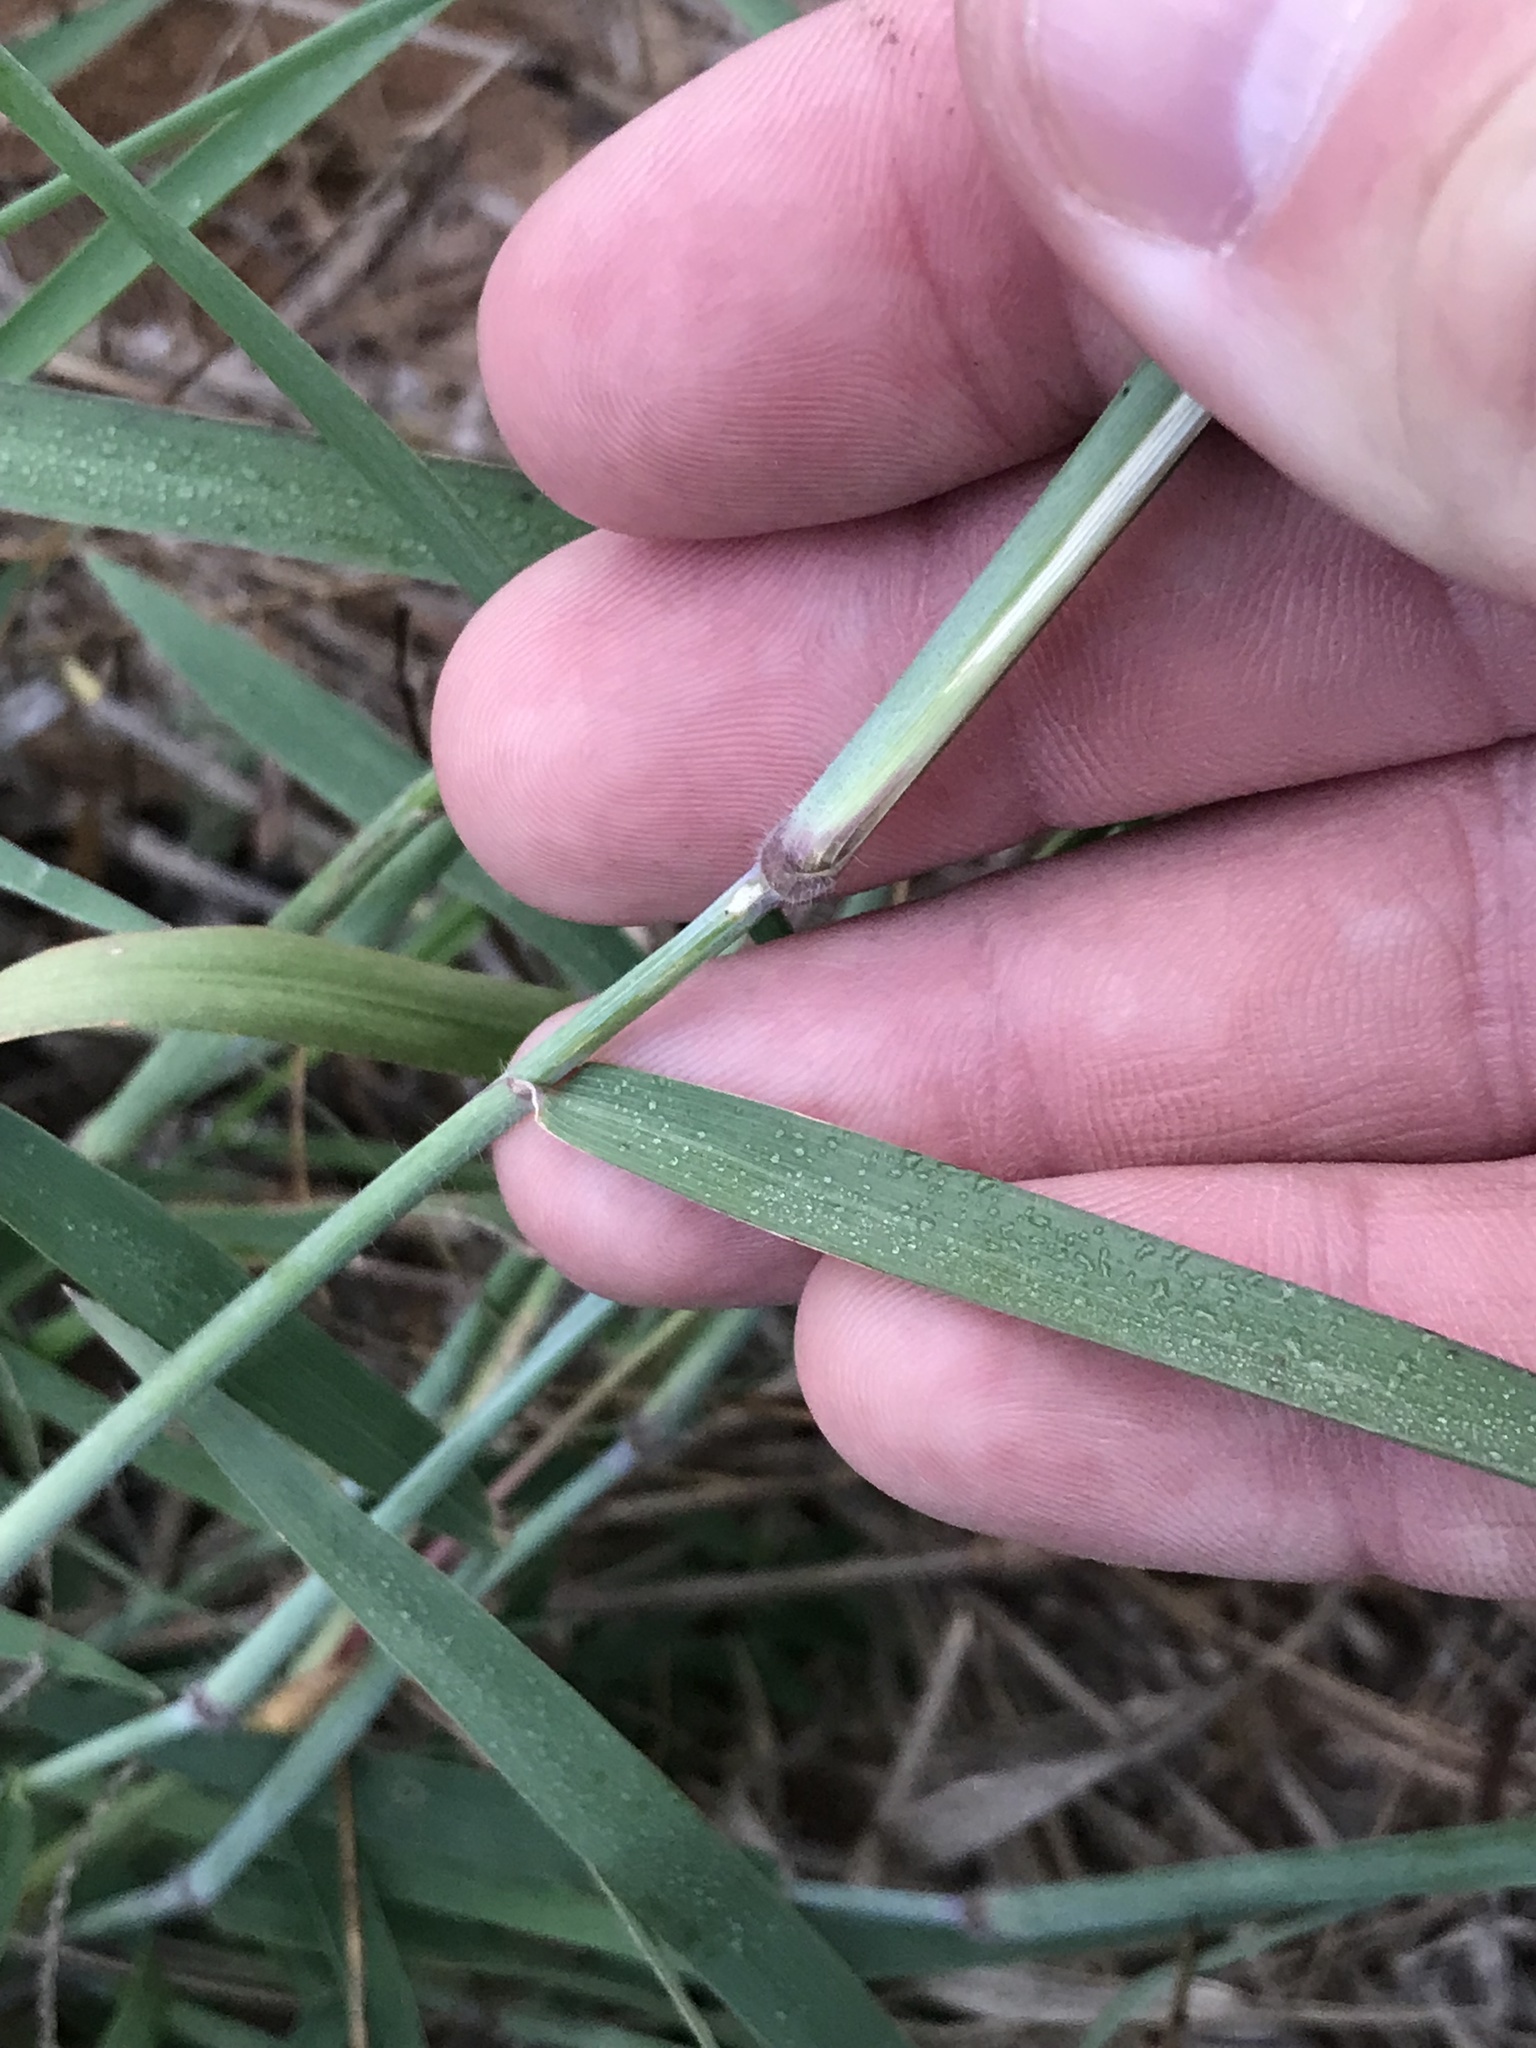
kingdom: Plantae
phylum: Tracheophyta
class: Liliopsida
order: Poales
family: Poaceae
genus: Melinis
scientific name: Melinis repens
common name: Rose natal grass
